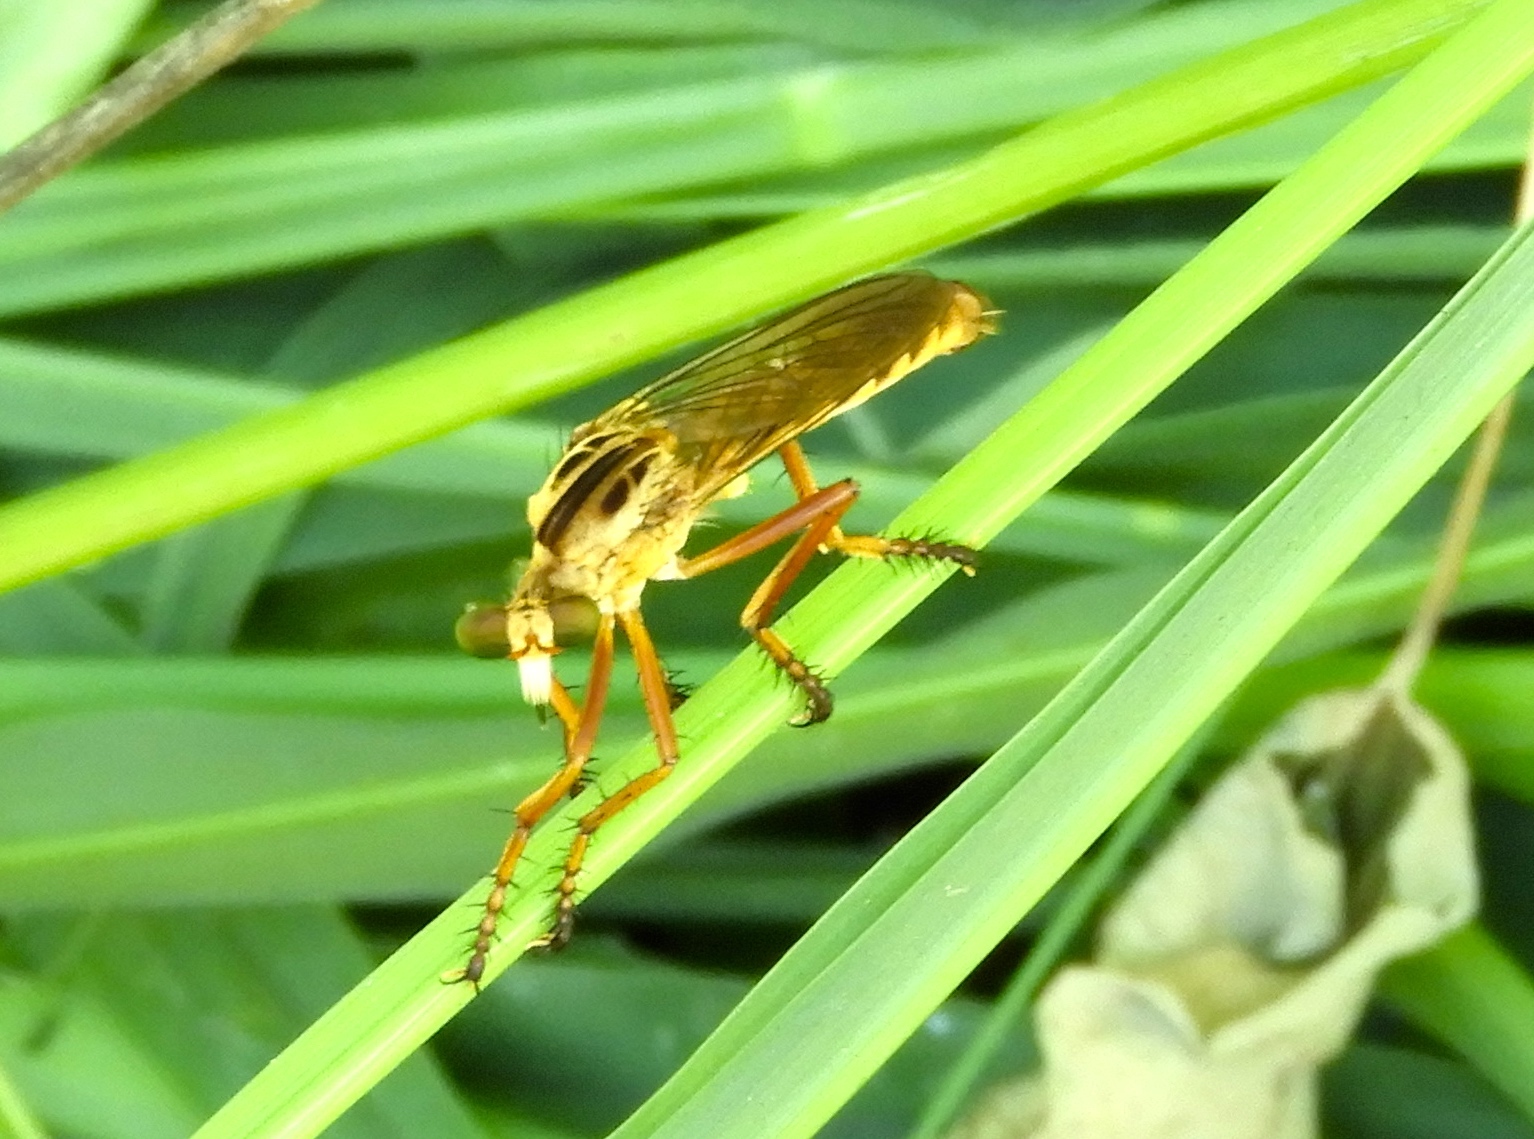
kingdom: Animalia
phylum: Arthropoda
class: Insecta
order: Diptera
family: Asilidae
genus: Diogmites
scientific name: Diogmites
